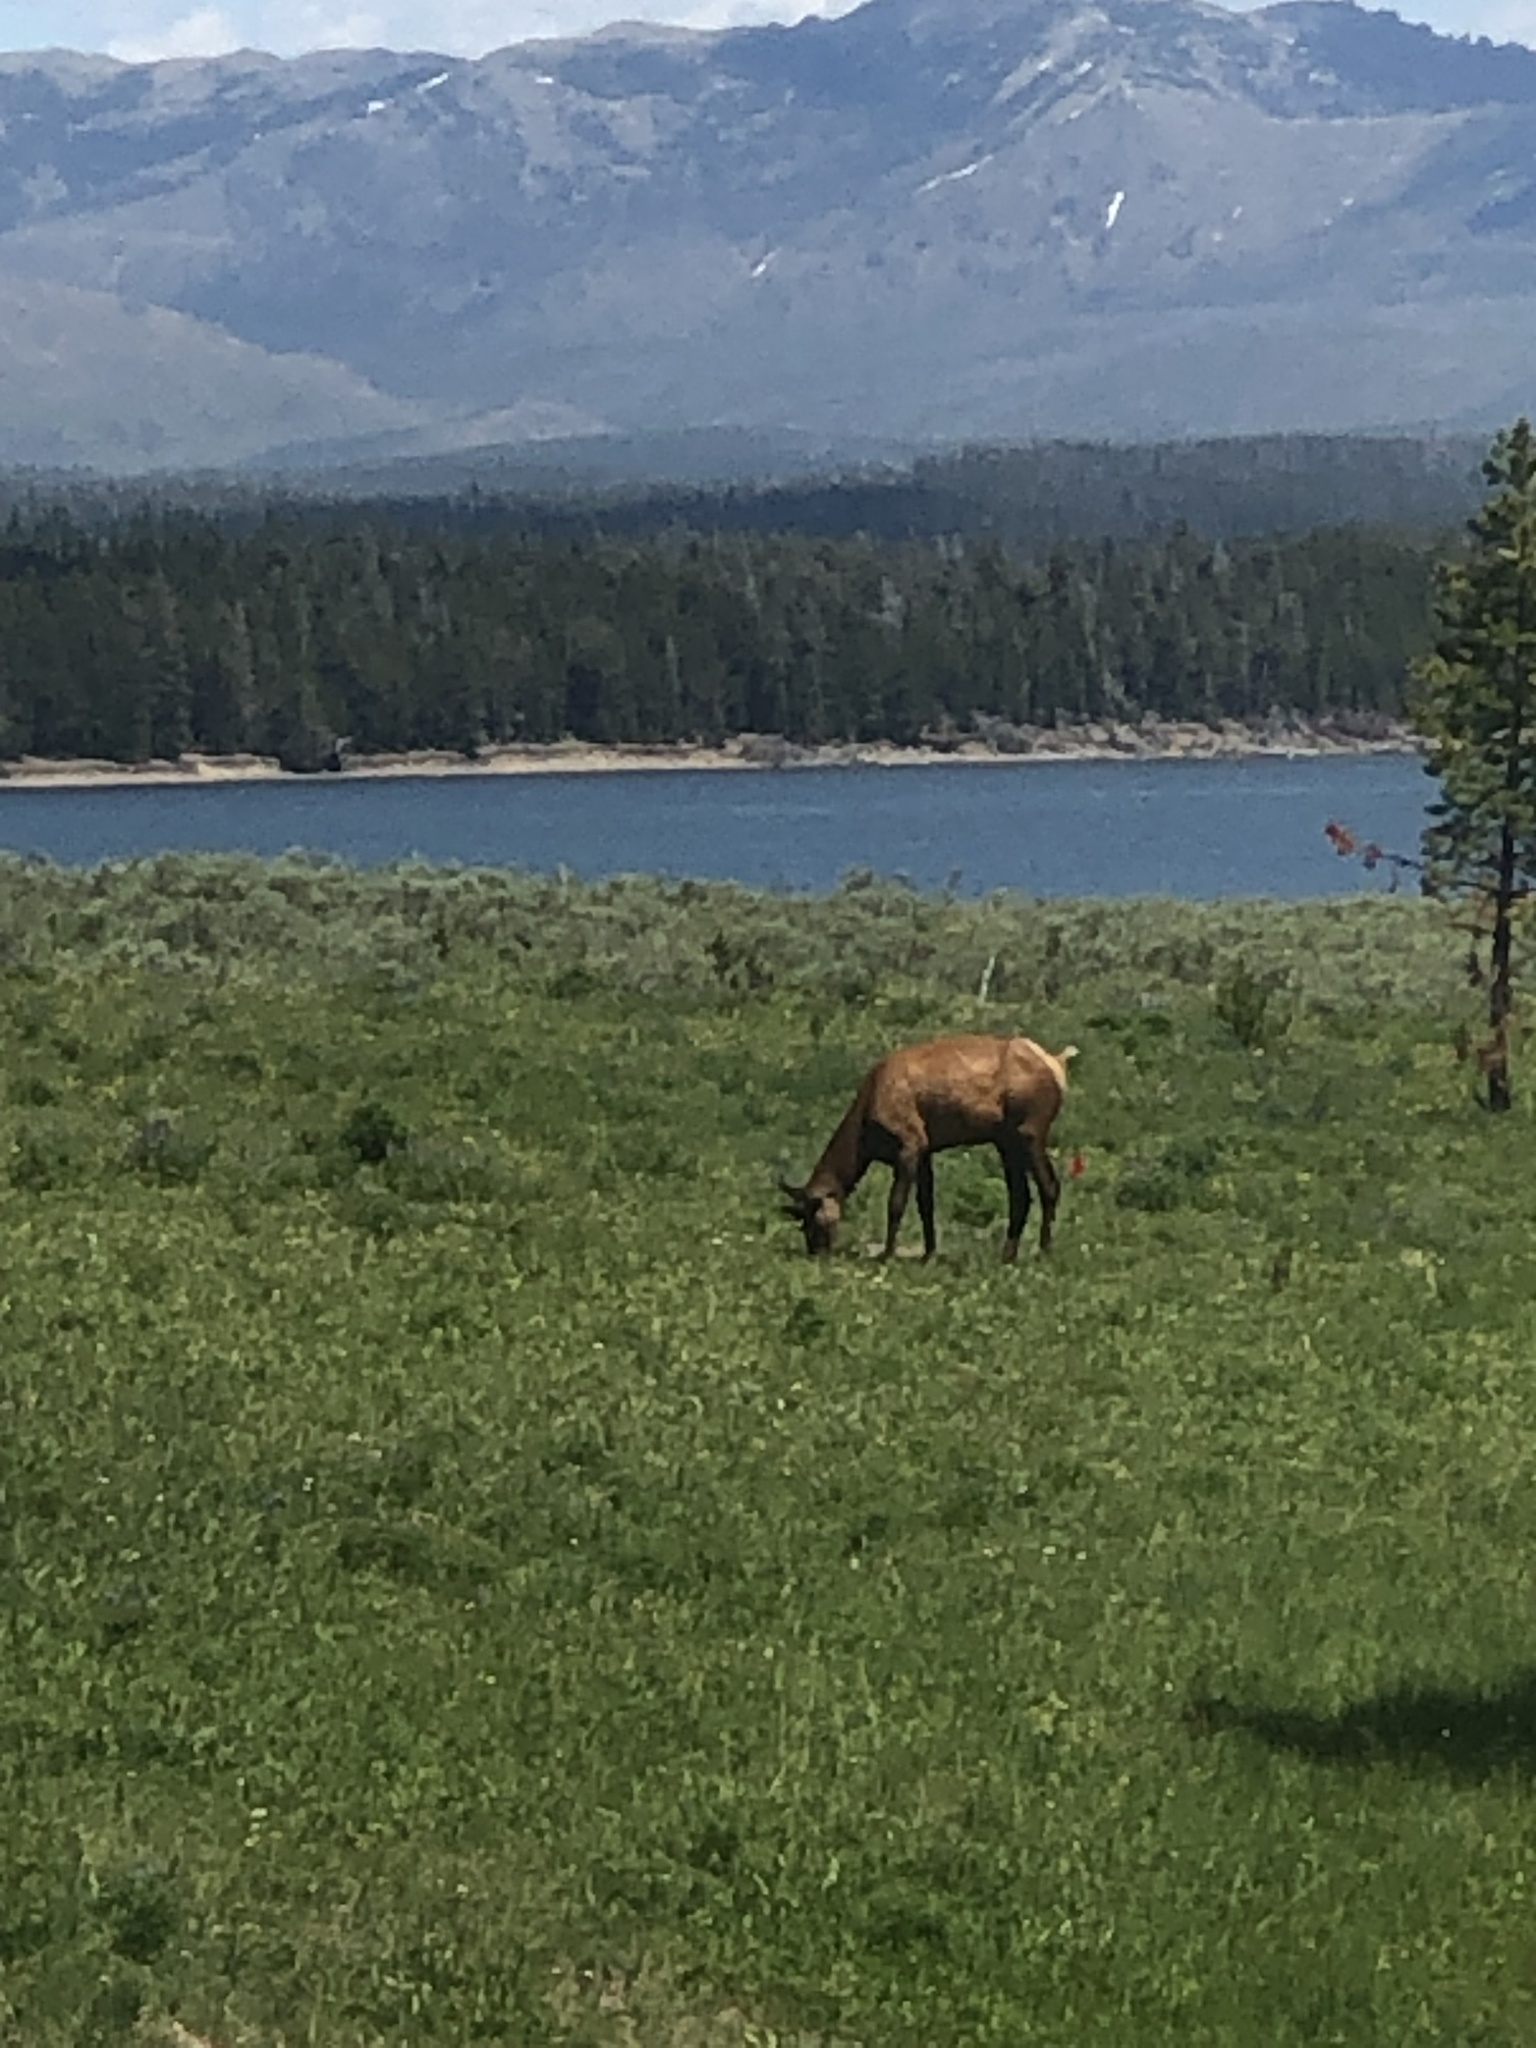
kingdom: Animalia
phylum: Chordata
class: Mammalia
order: Artiodactyla
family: Cervidae
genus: Cervus
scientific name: Cervus elaphus
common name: Red deer
